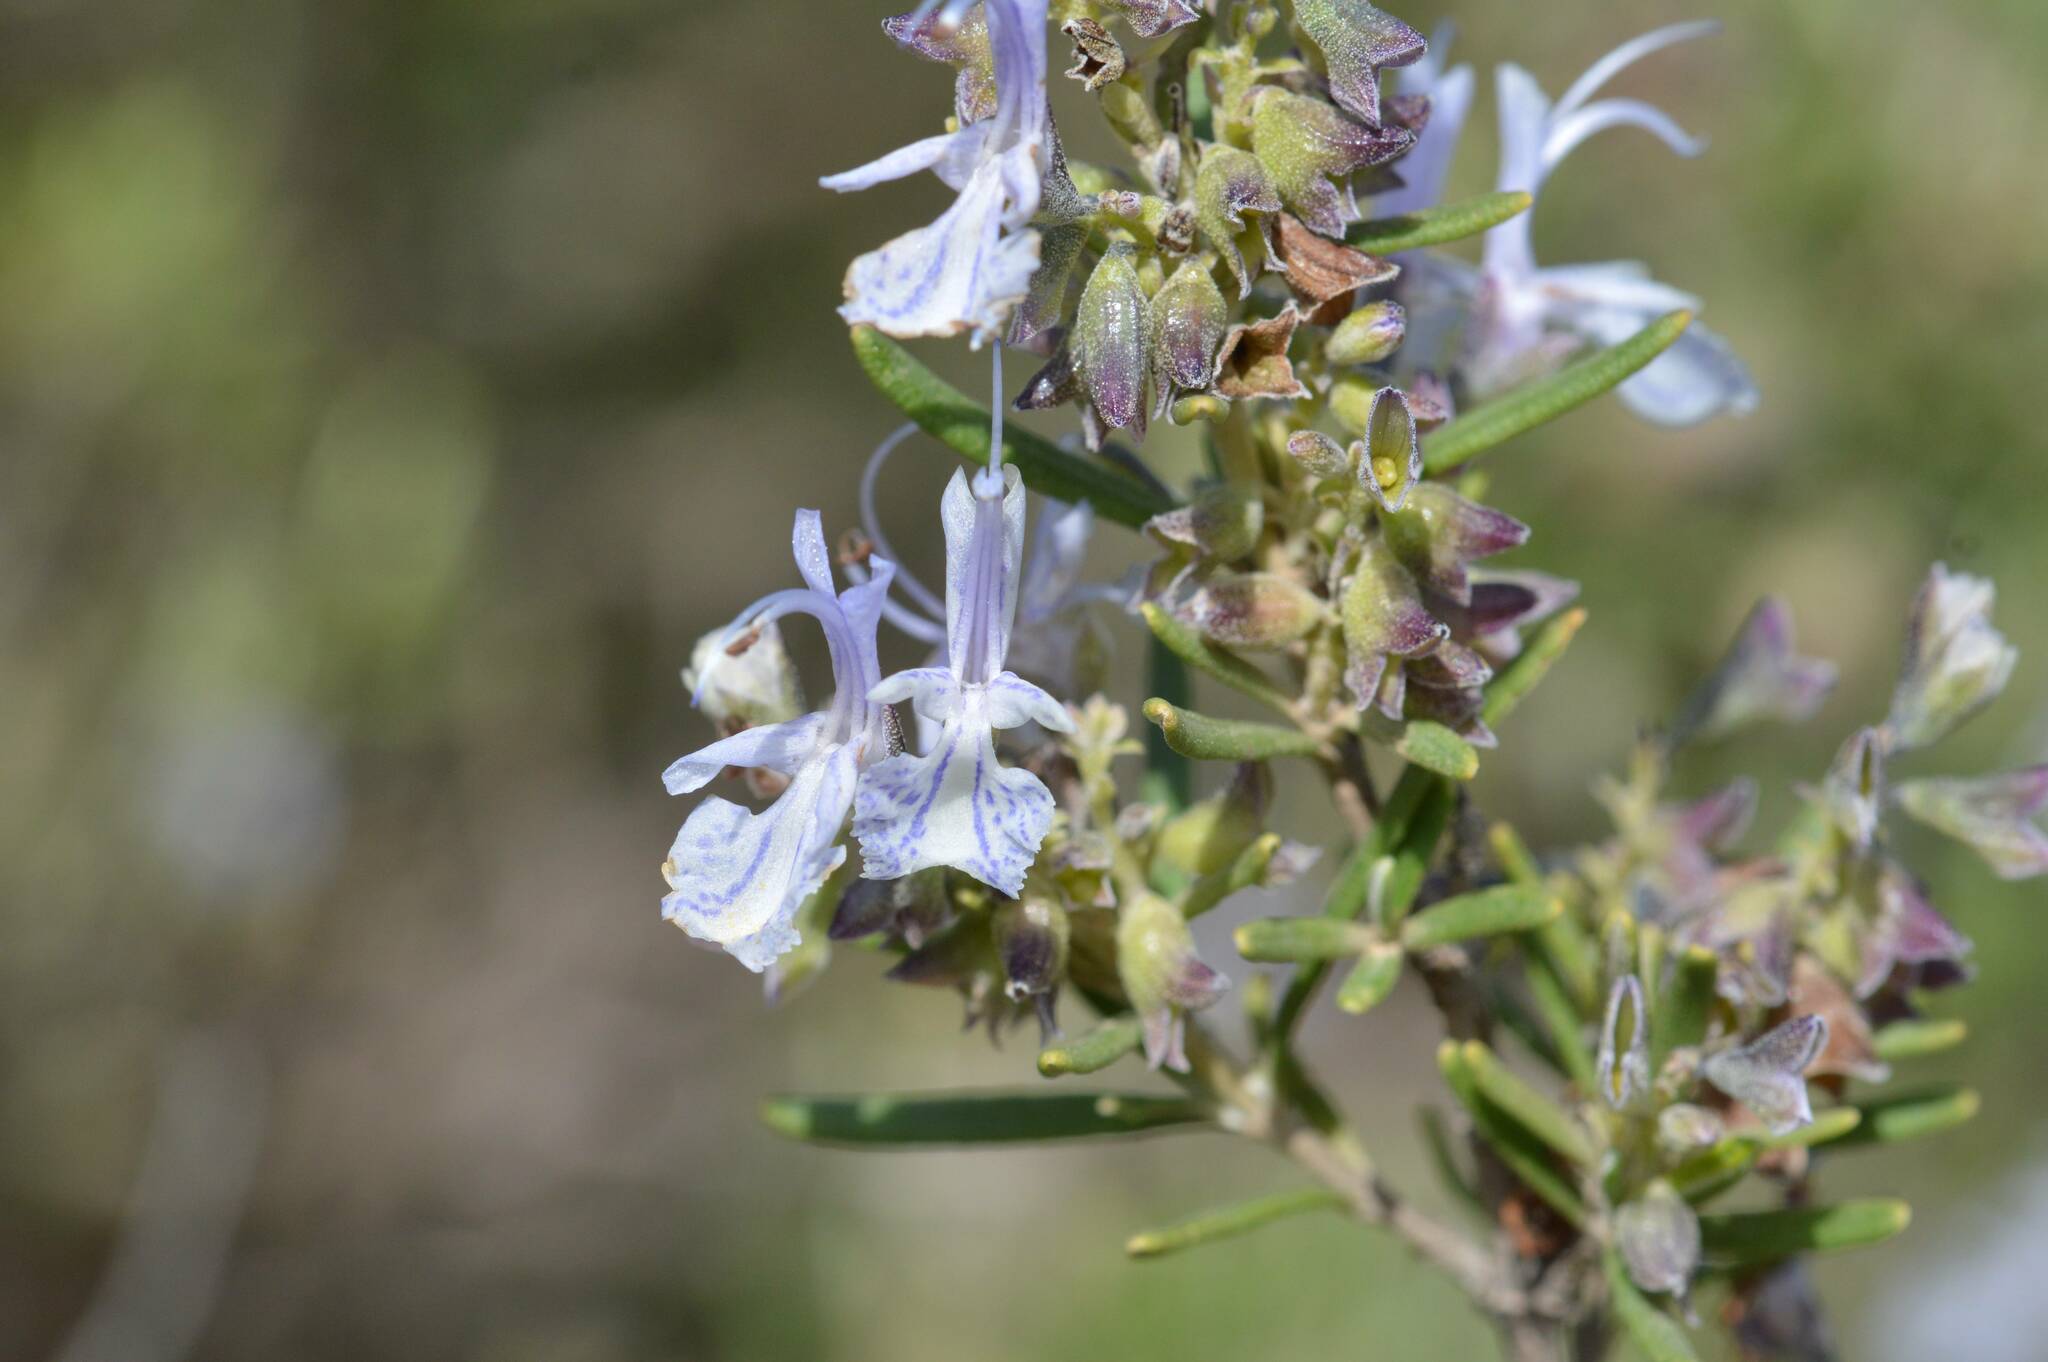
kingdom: Plantae
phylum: Tracheophyta
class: Magnoliopsida
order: Lamiales
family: Lamiaceae
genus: Salvia
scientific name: Salvia rosmarinus
